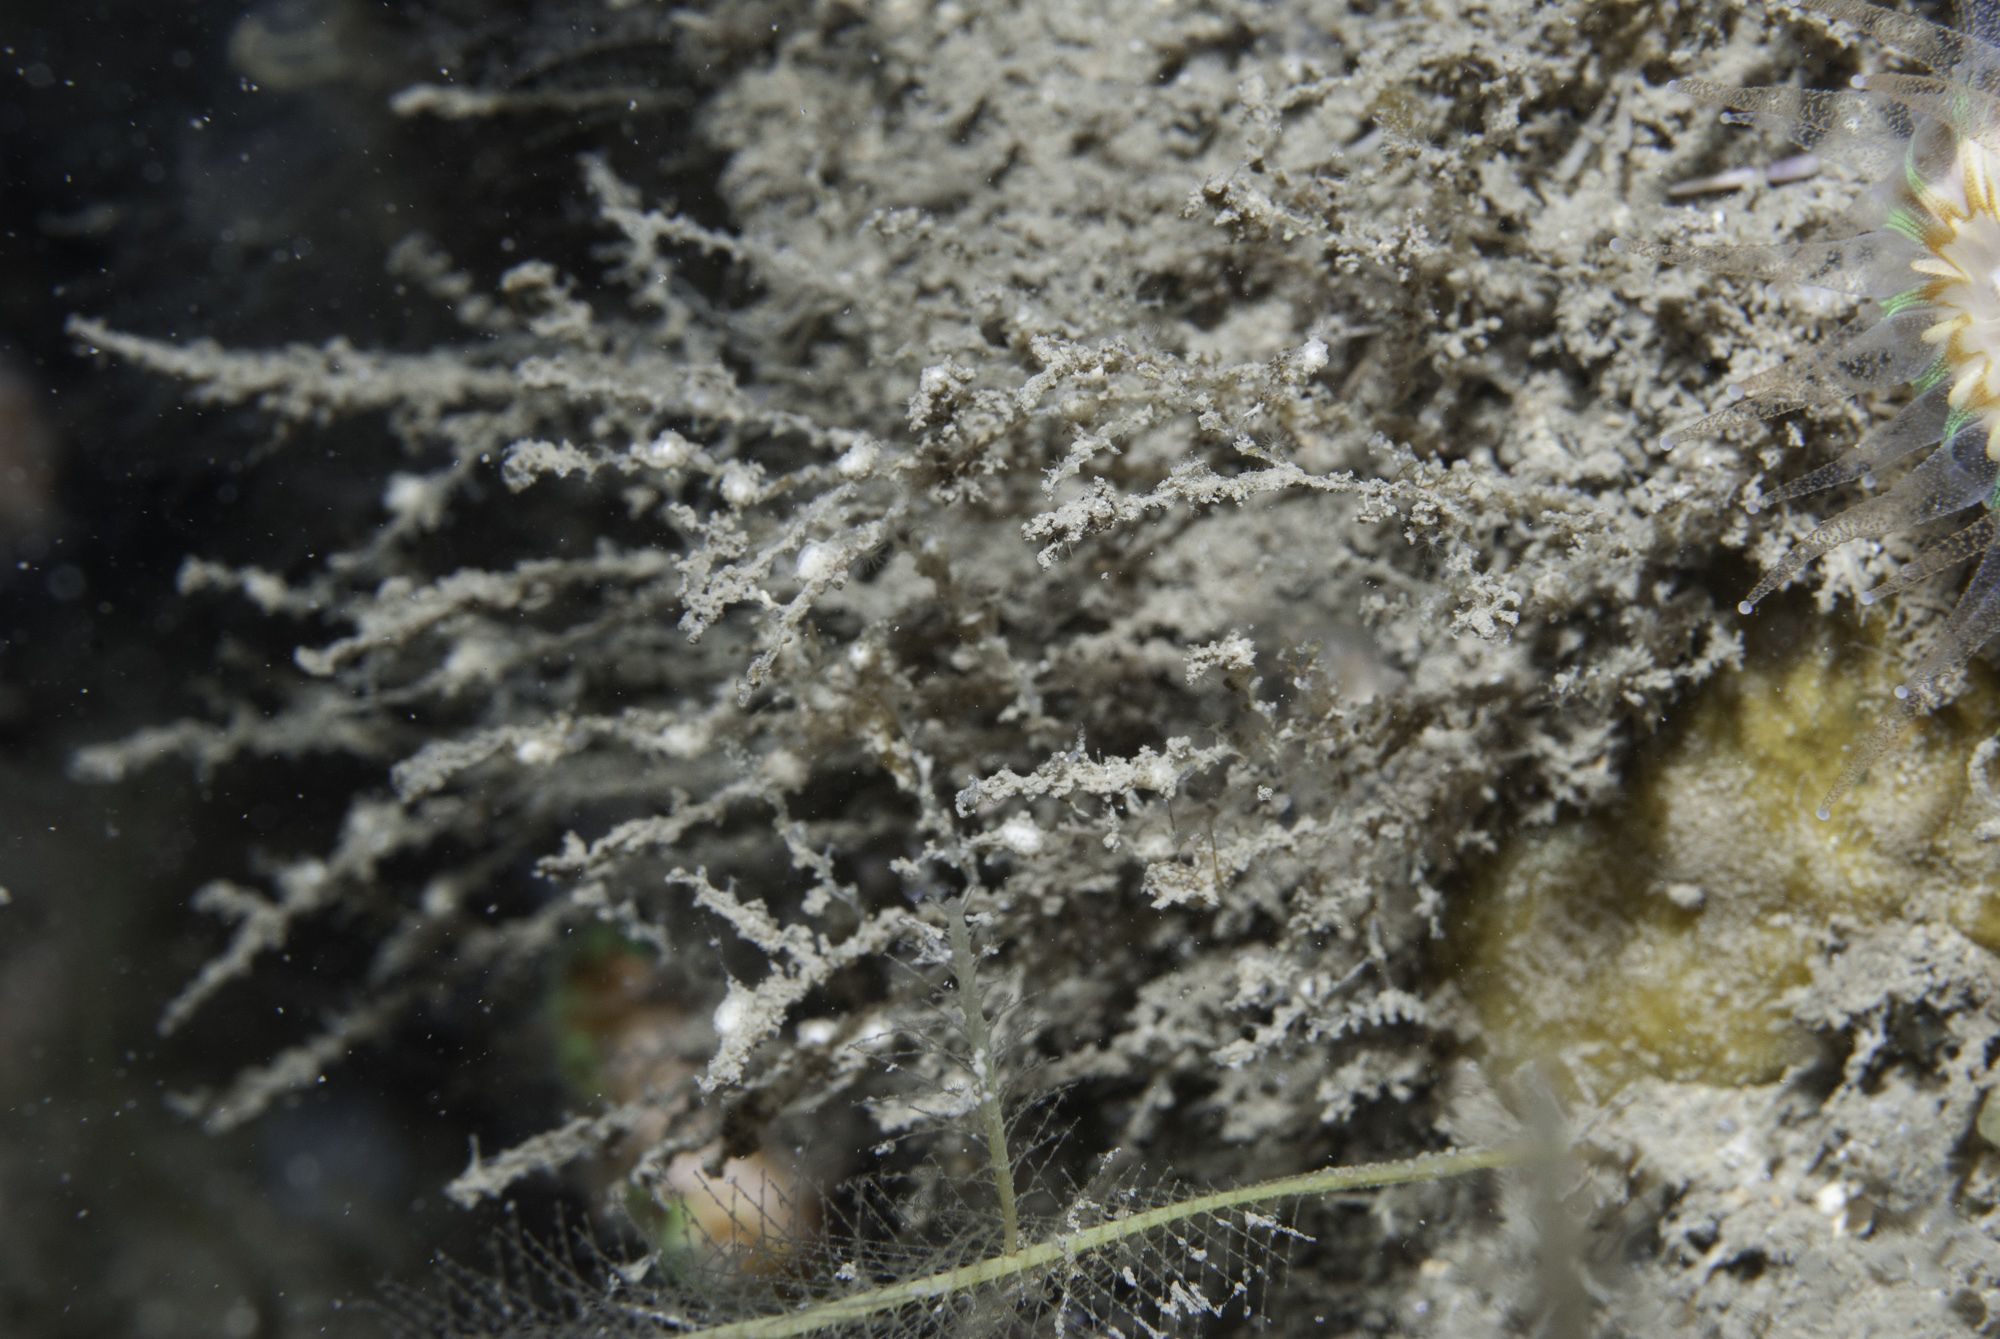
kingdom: Animalia
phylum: Cnidaria
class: Hydrozoa
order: Leptothecata
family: Sertulariidae
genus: Tamarisca
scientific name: Tamarisca tamarisca
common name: Sea tamarisk
